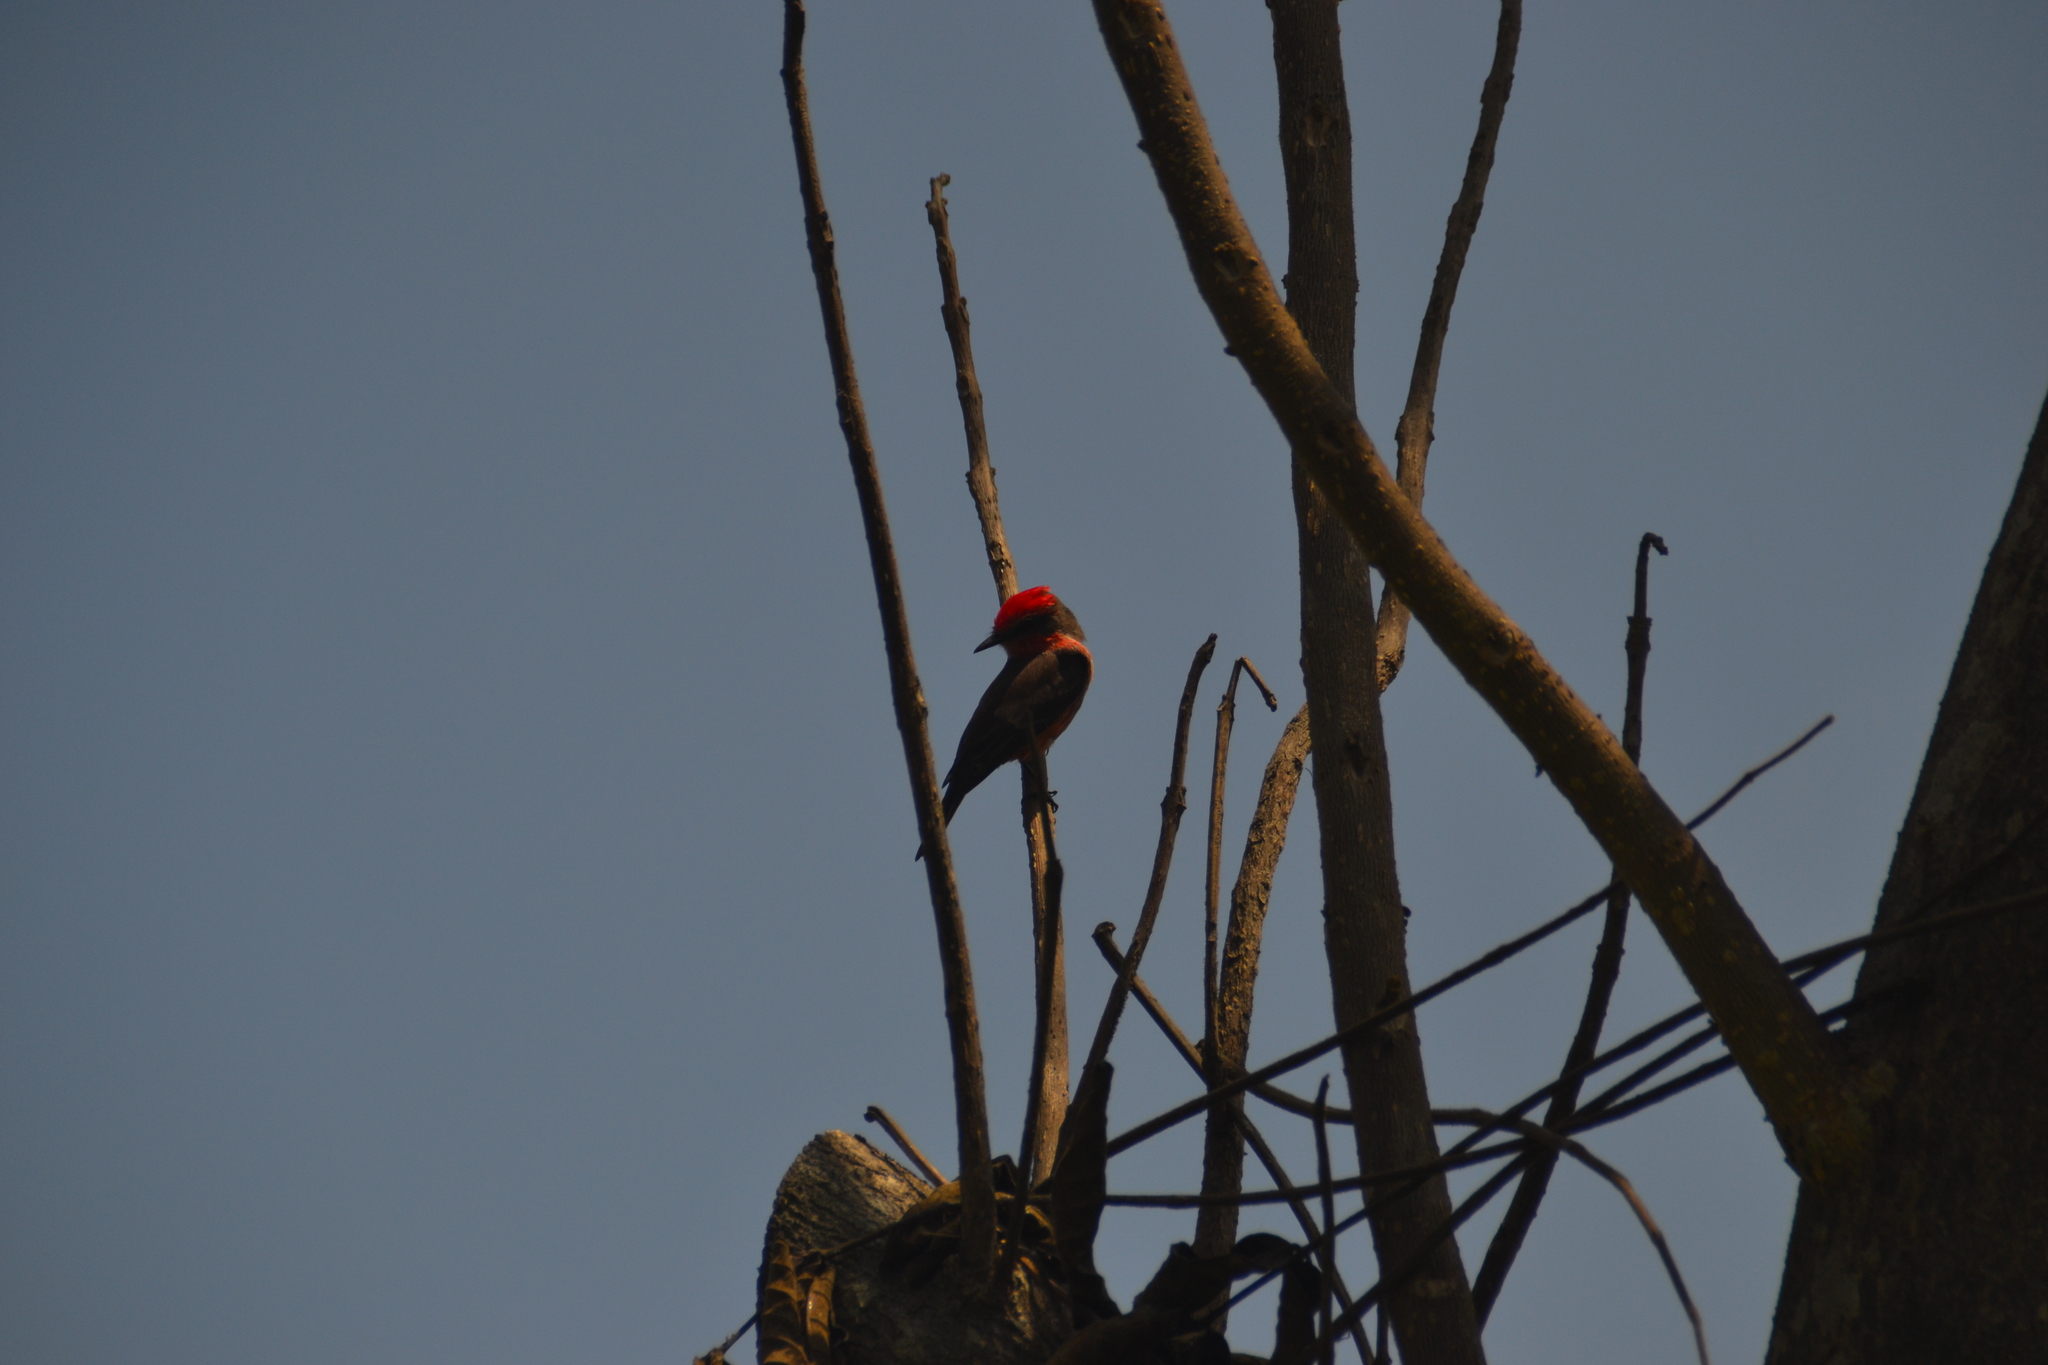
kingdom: Animalia
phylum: Chordata
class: Aves
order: Passeriformes
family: Tyrannidae
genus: Pyrocephalus
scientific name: Pyrocephalus rubinus
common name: Vermilion flycatcher
